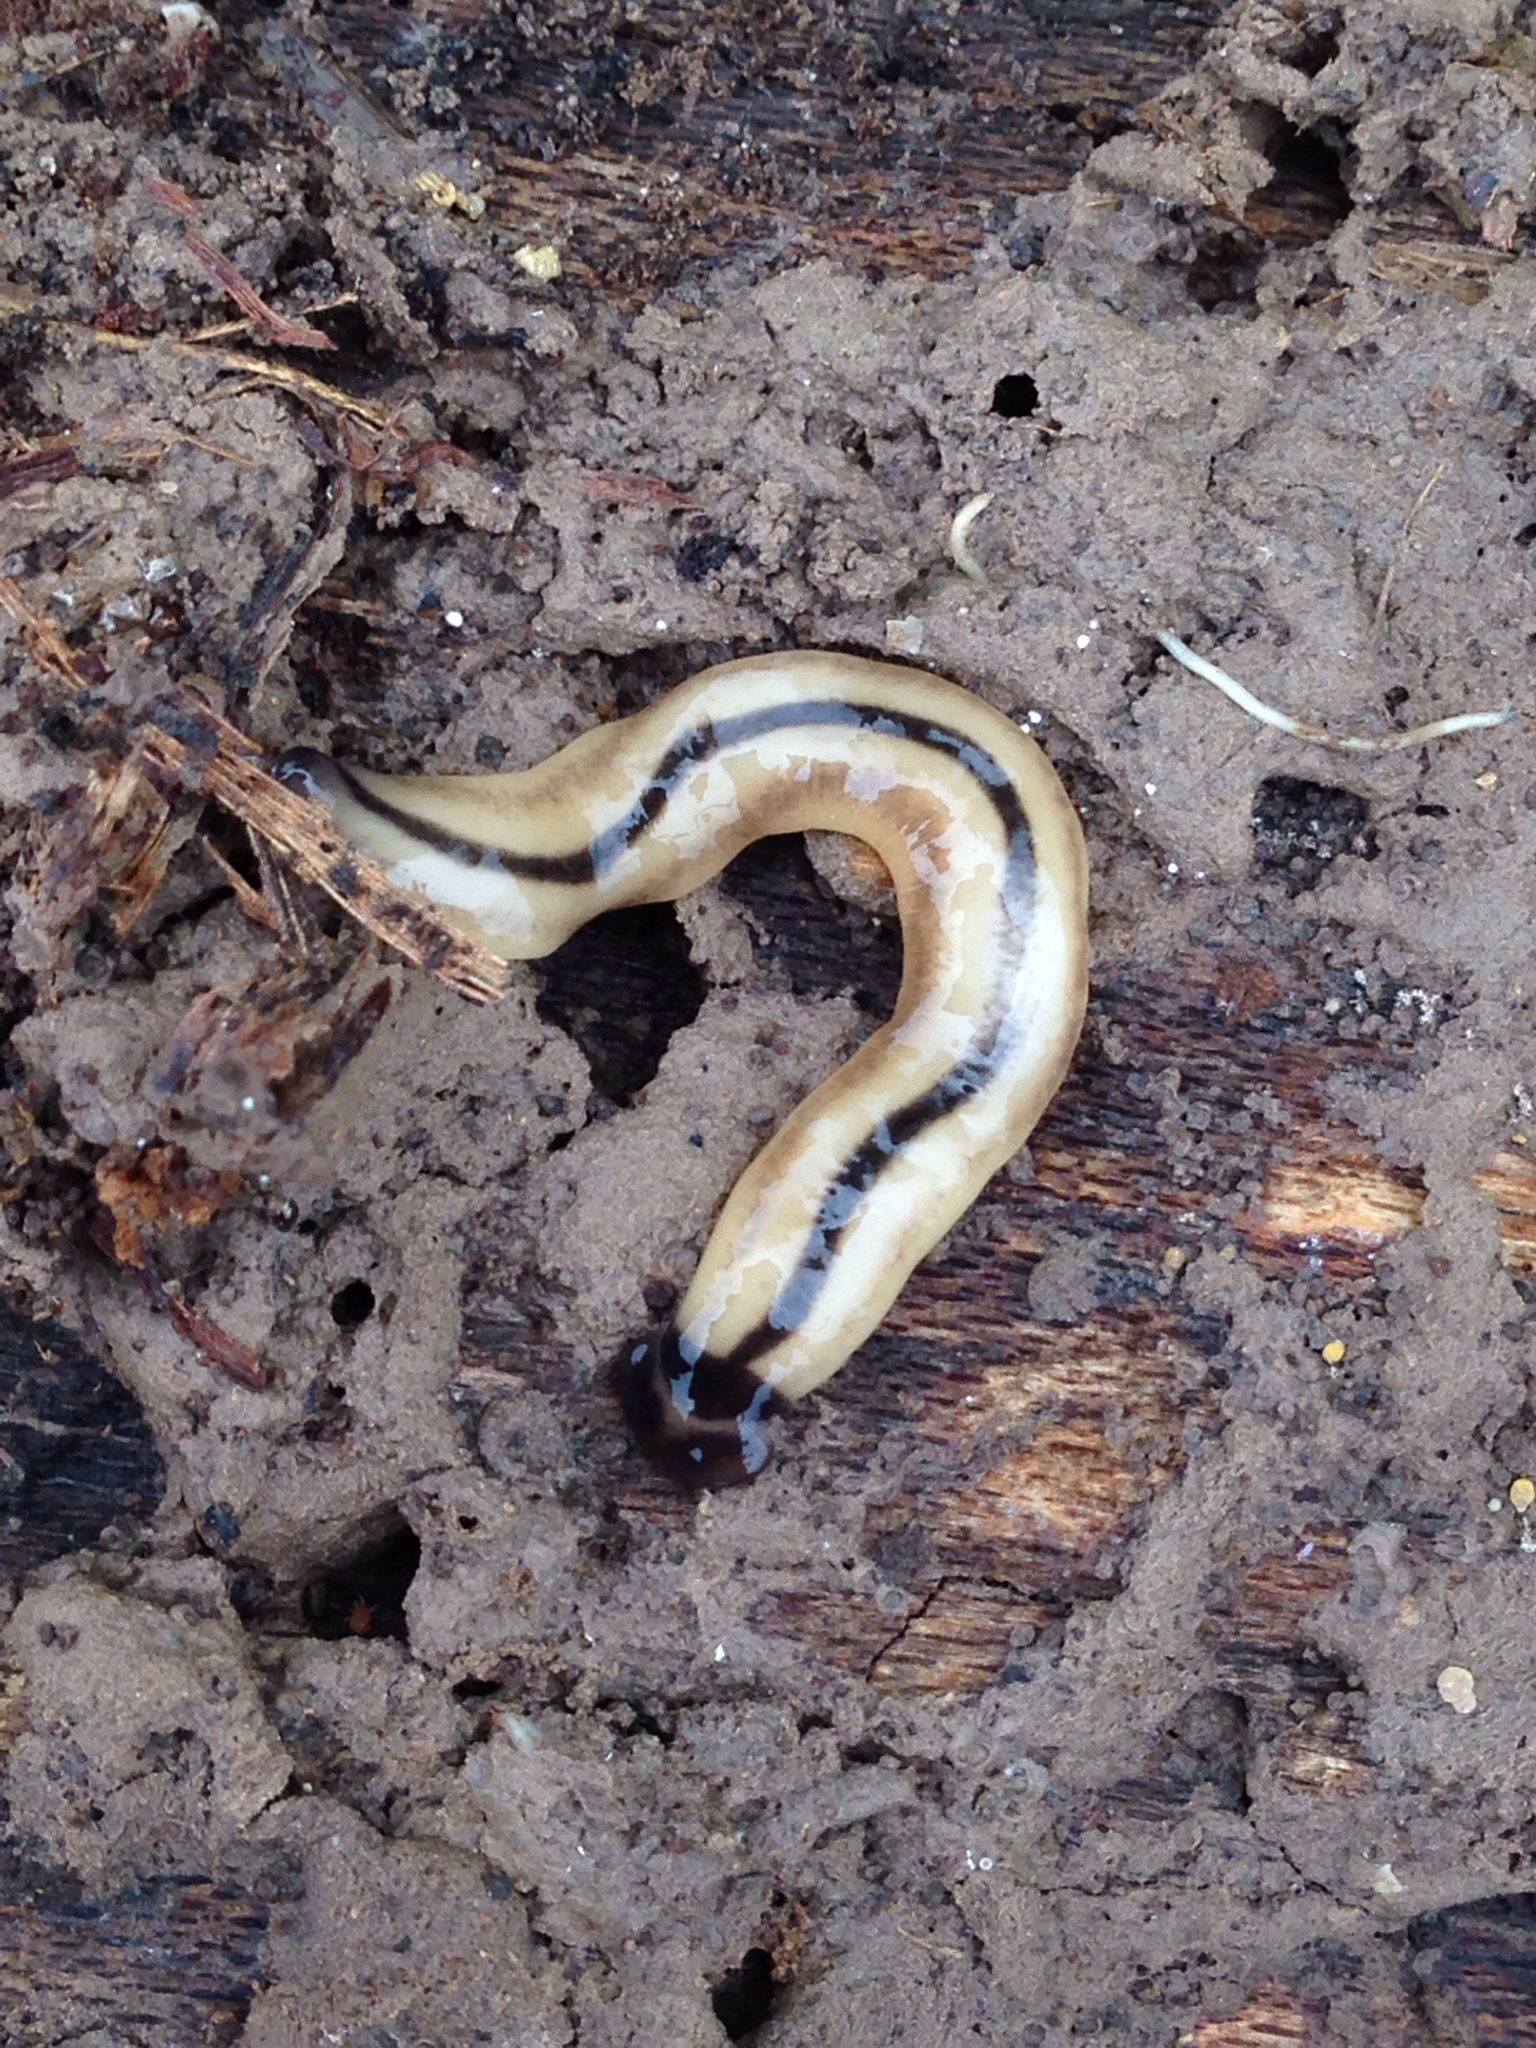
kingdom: Animalia
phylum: Platyhelminthes
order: Tricladida
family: Geoplanidae
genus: Bipalium
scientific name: Bipalium vagum
